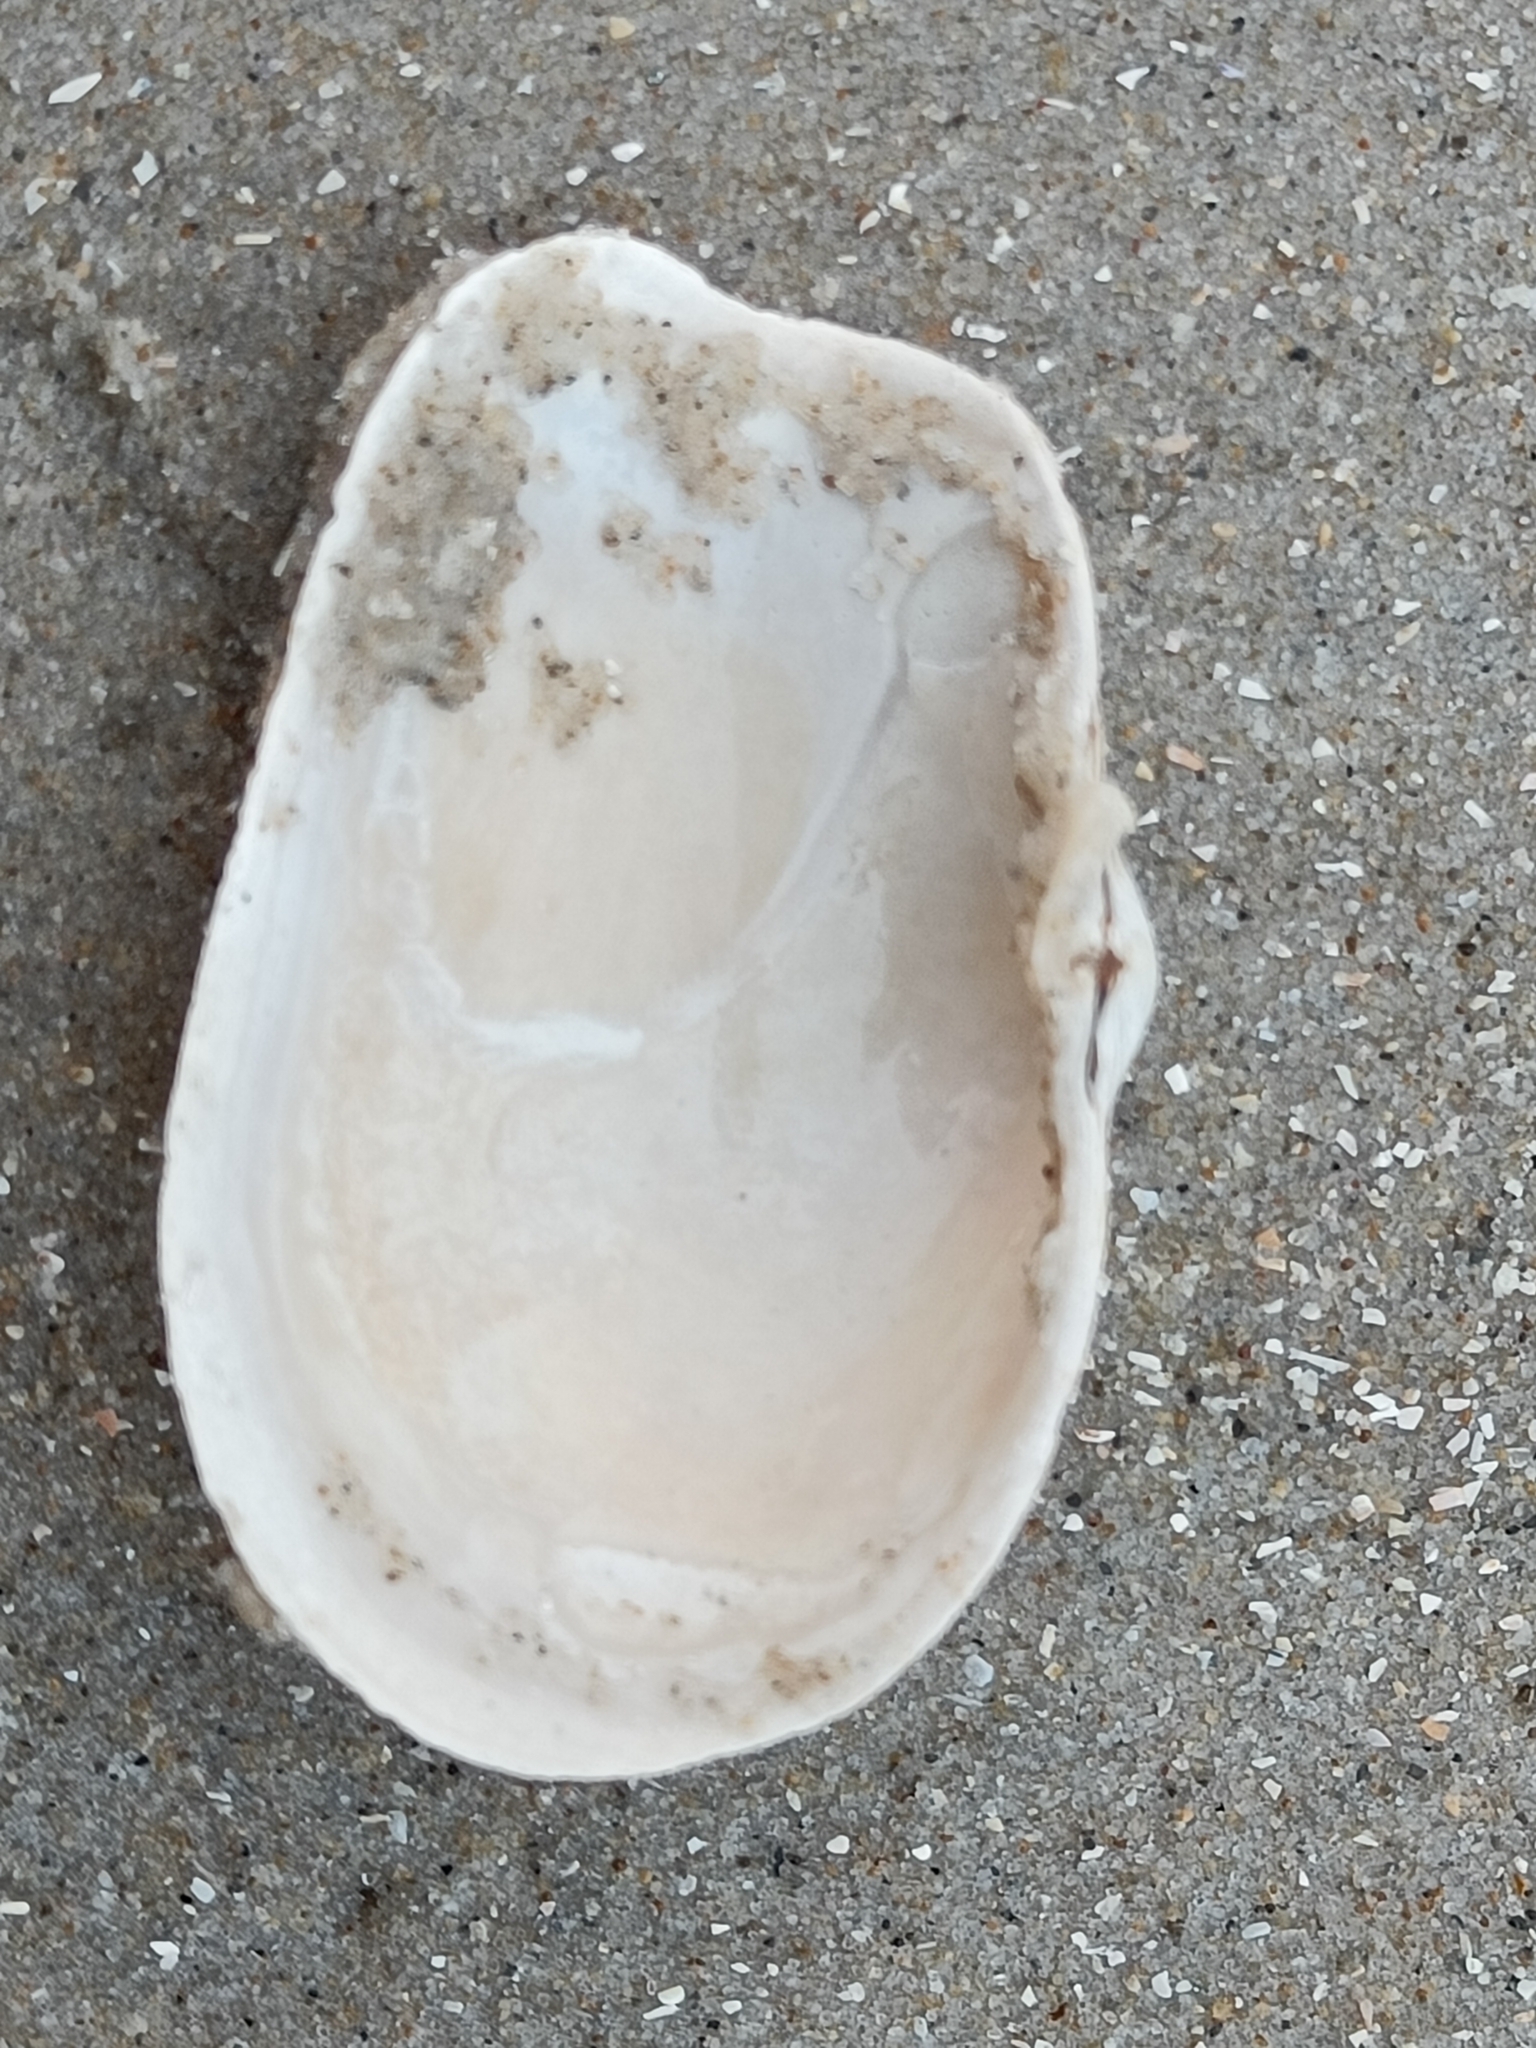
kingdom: Animalia
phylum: Mollusca
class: Bivalvia
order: Myida
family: Myidae
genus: Mya
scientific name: Mya truncata
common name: Blunt gaper
